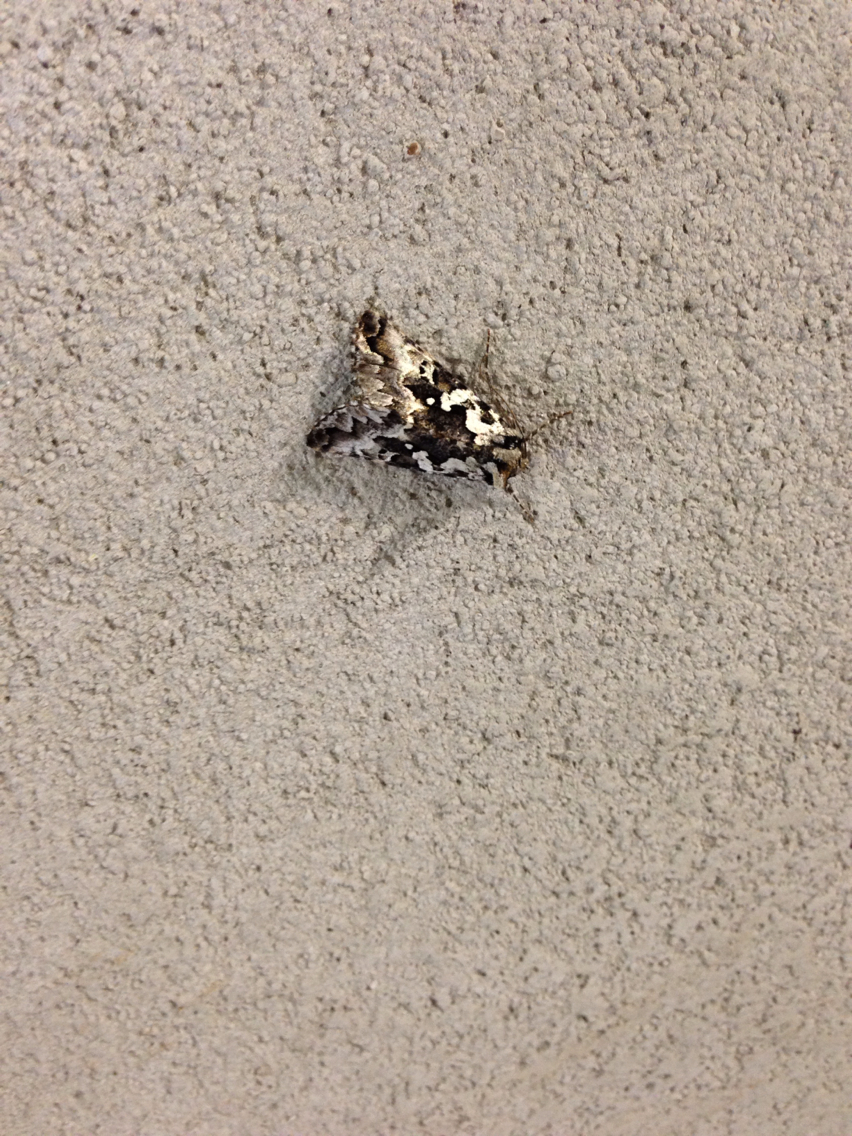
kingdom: Animalia
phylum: Arthropoda
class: Insecta
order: Lepidoptera
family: Noctuidae
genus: Syngrapha
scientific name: Syngrapha rectangula
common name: Angulated cutworm
